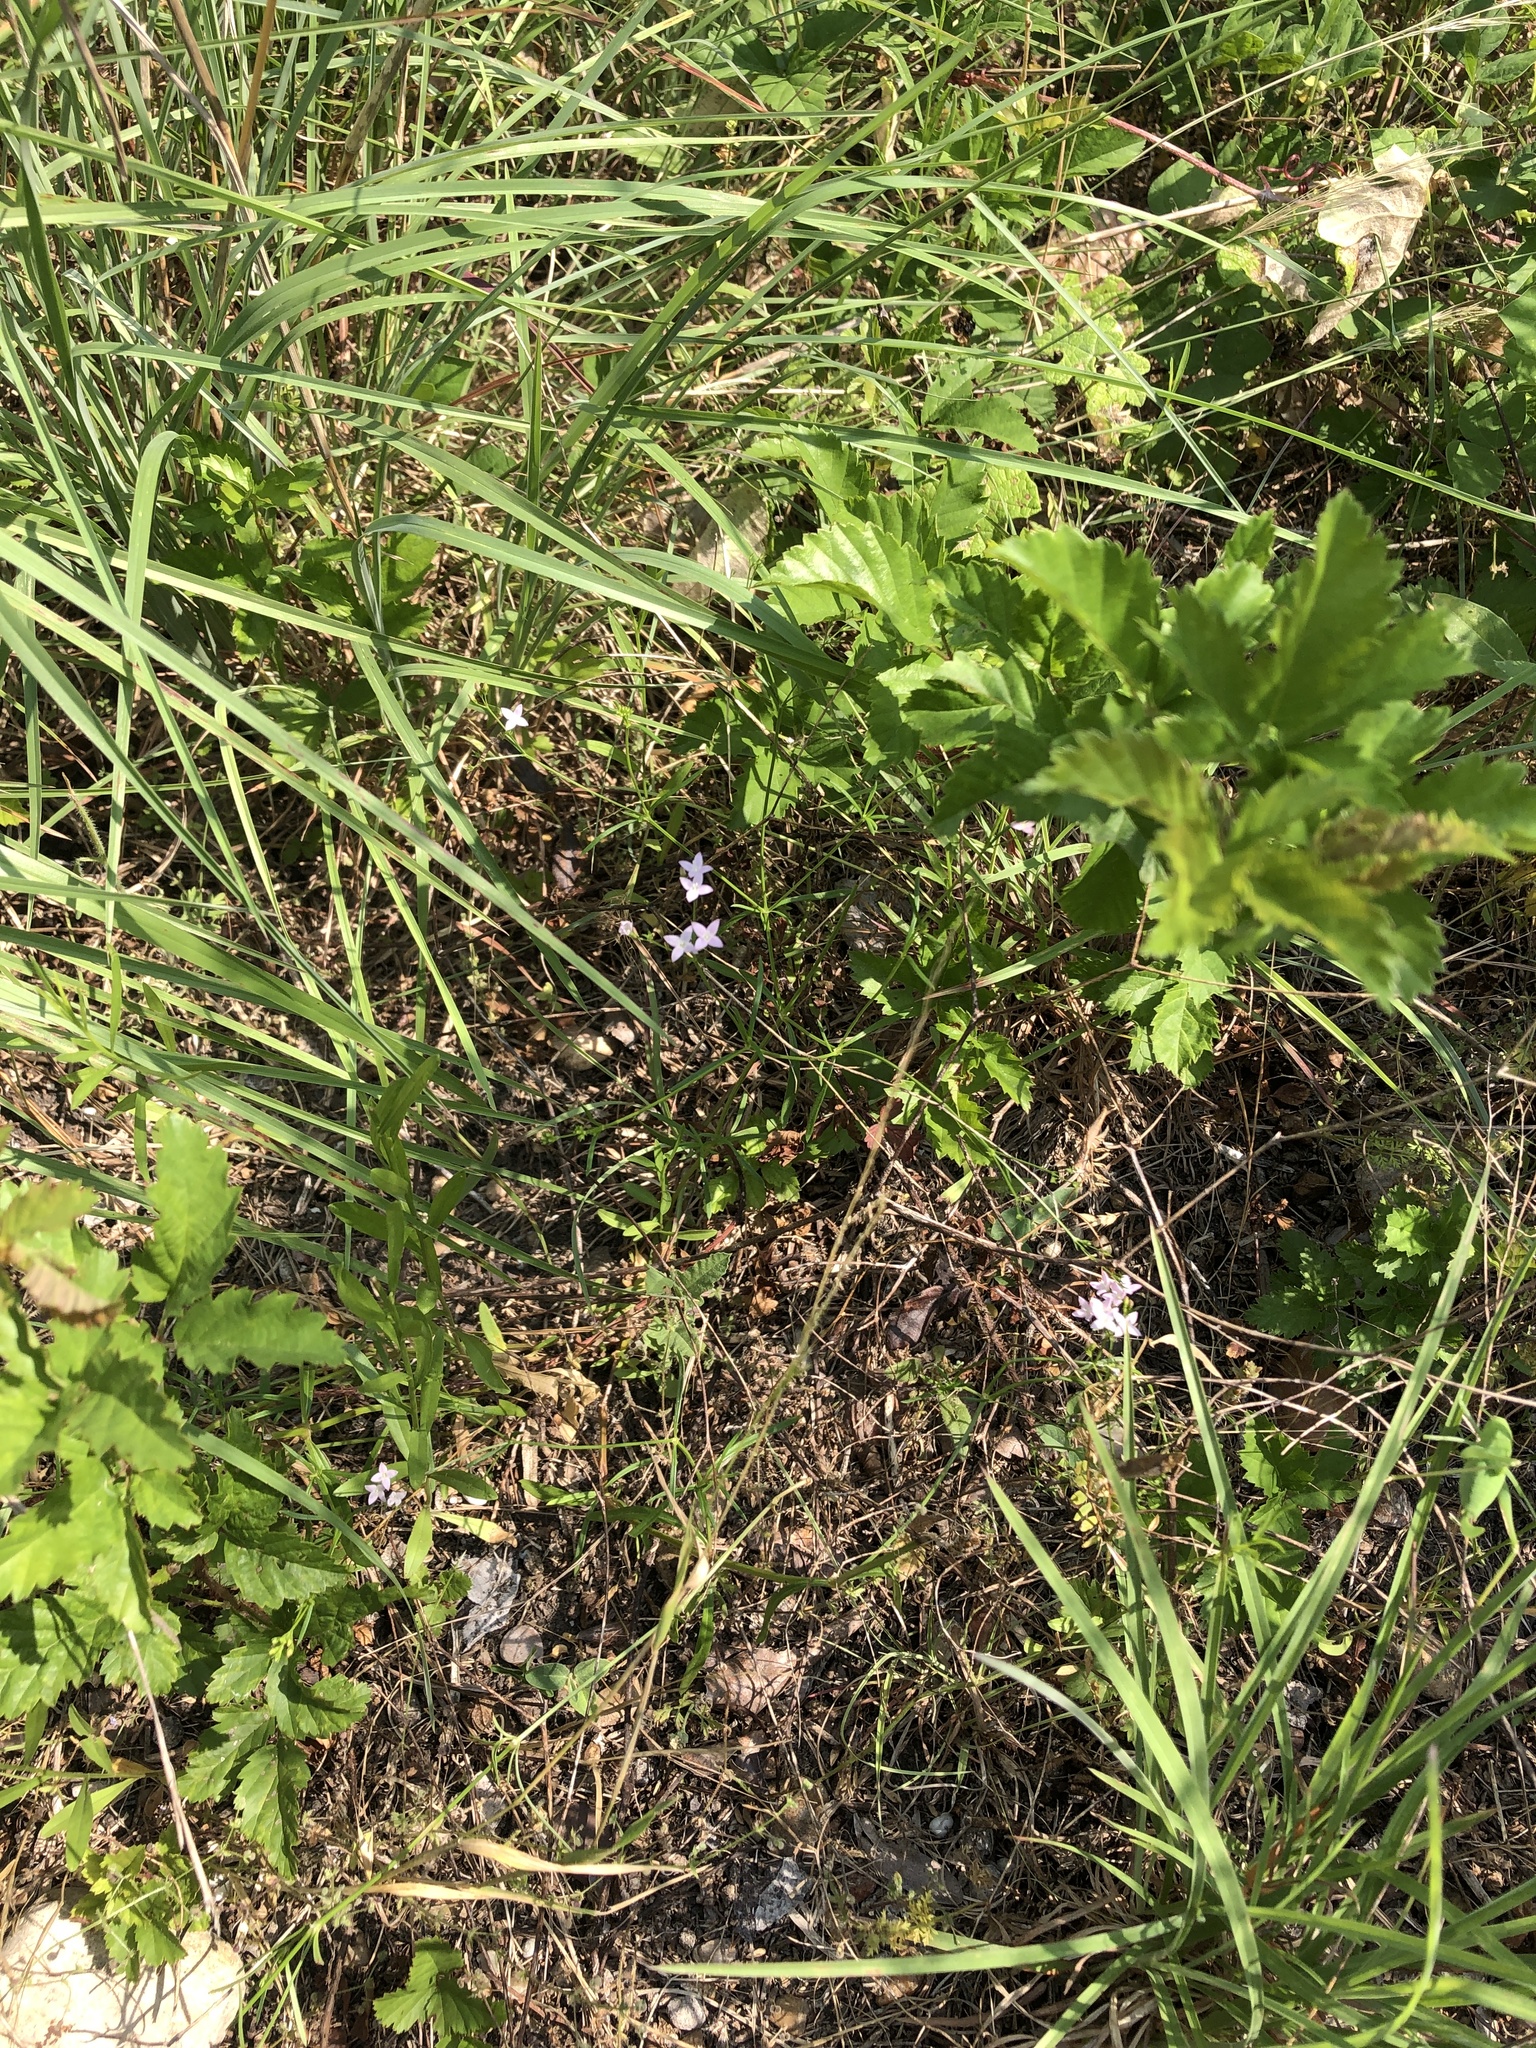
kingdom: Plantae
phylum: Tracheophyta
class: Magnoliopsida
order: Gentianales
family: Rubiaceae
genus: Stenaria
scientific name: Stenaria nigricans
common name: Diamondflowers
